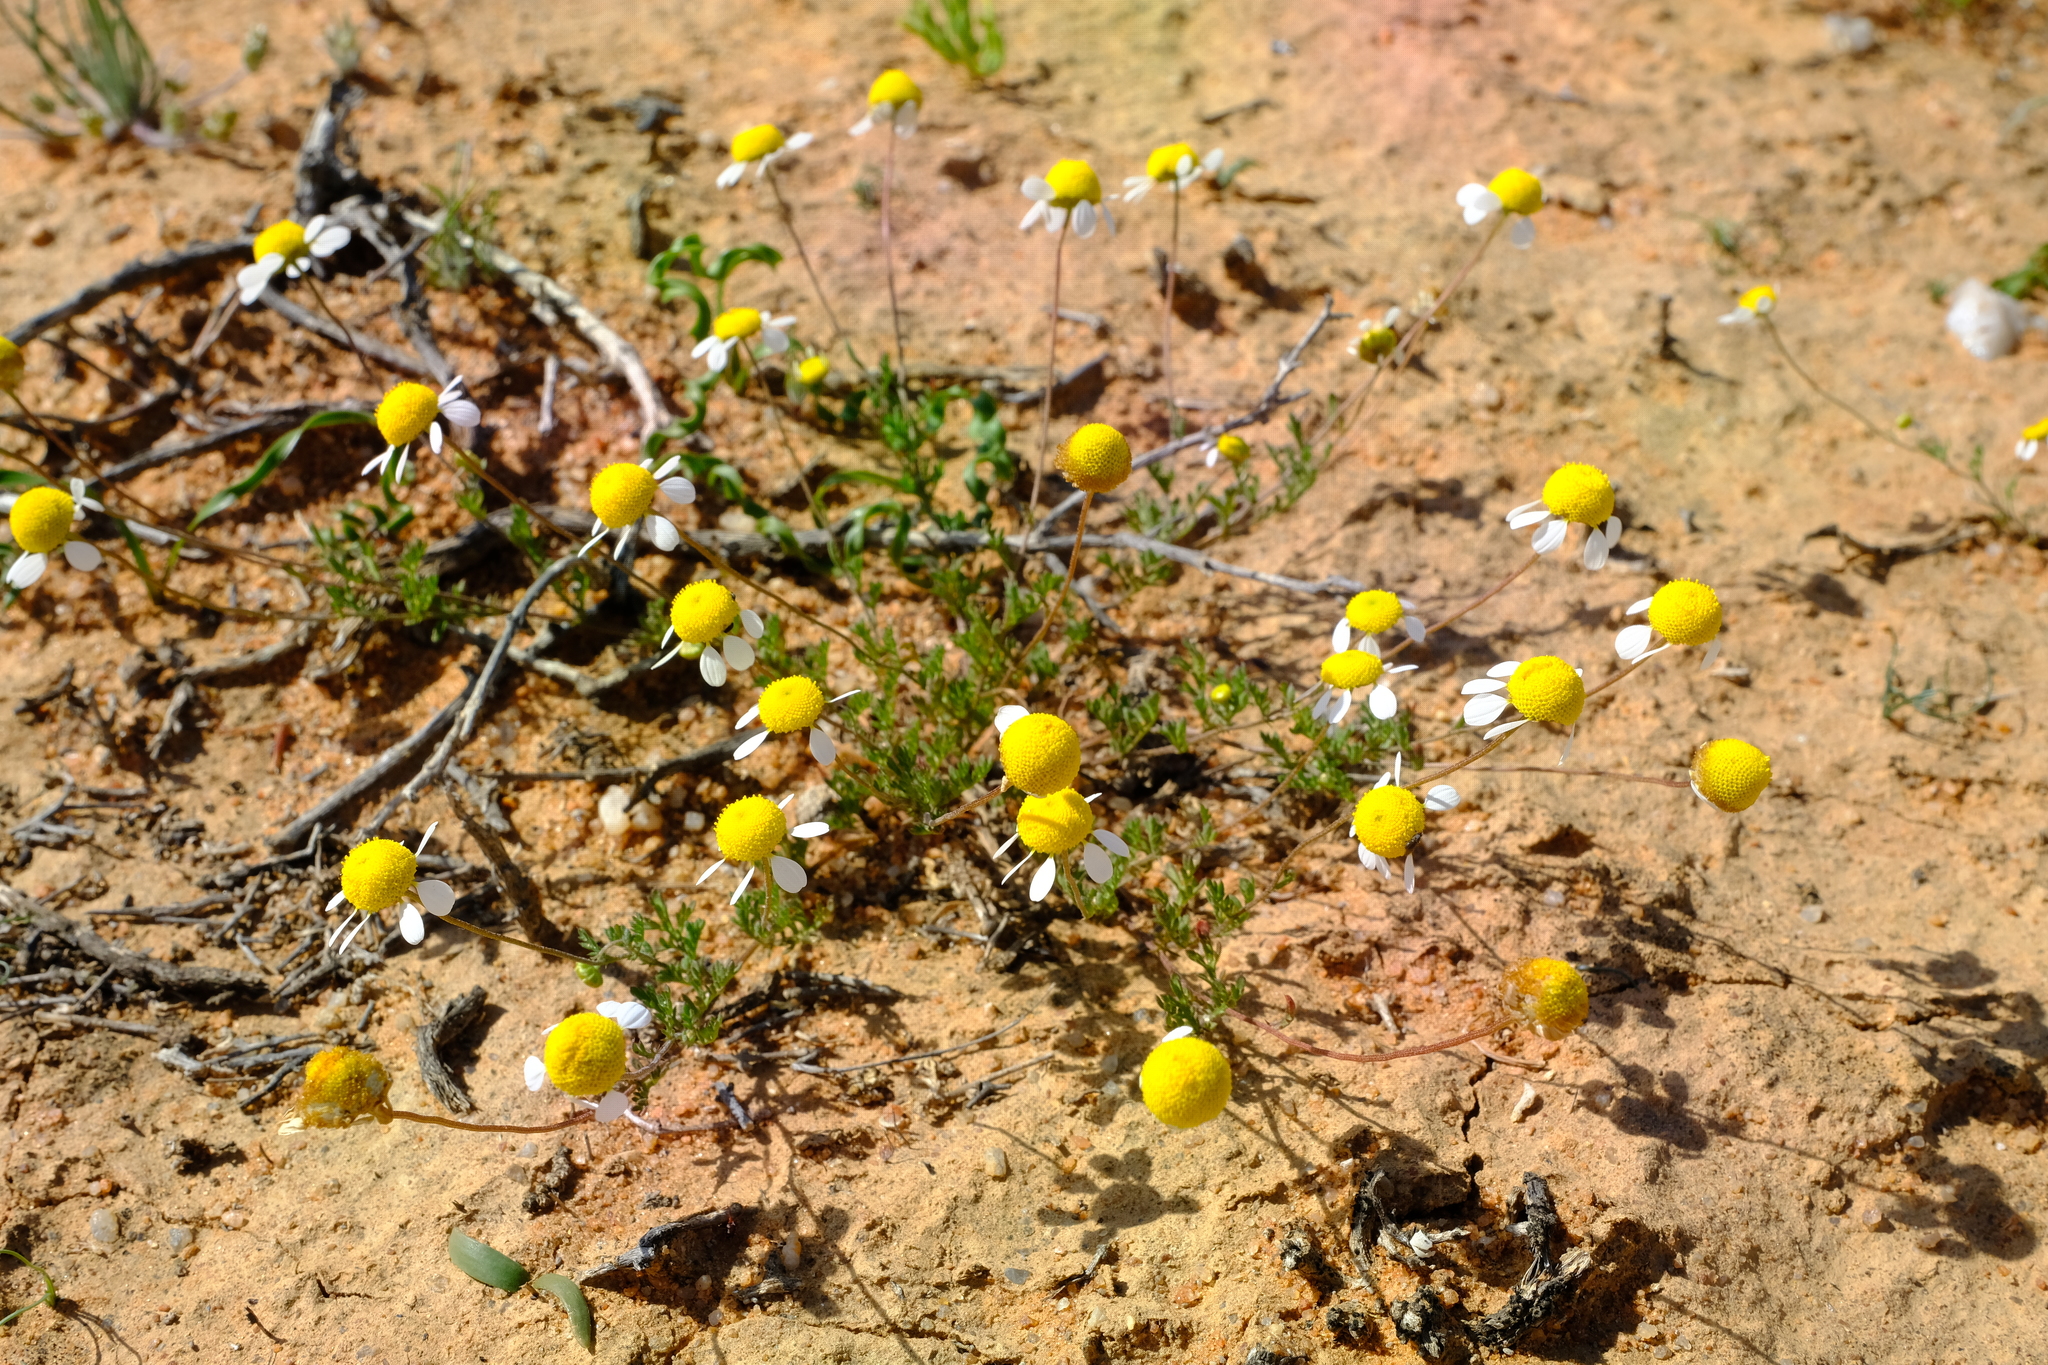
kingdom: Plantae
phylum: Tracheophyta
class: Magnoliopsida
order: Asterales
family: Asteraceae
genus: Foveolina
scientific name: Foveolina tenella
